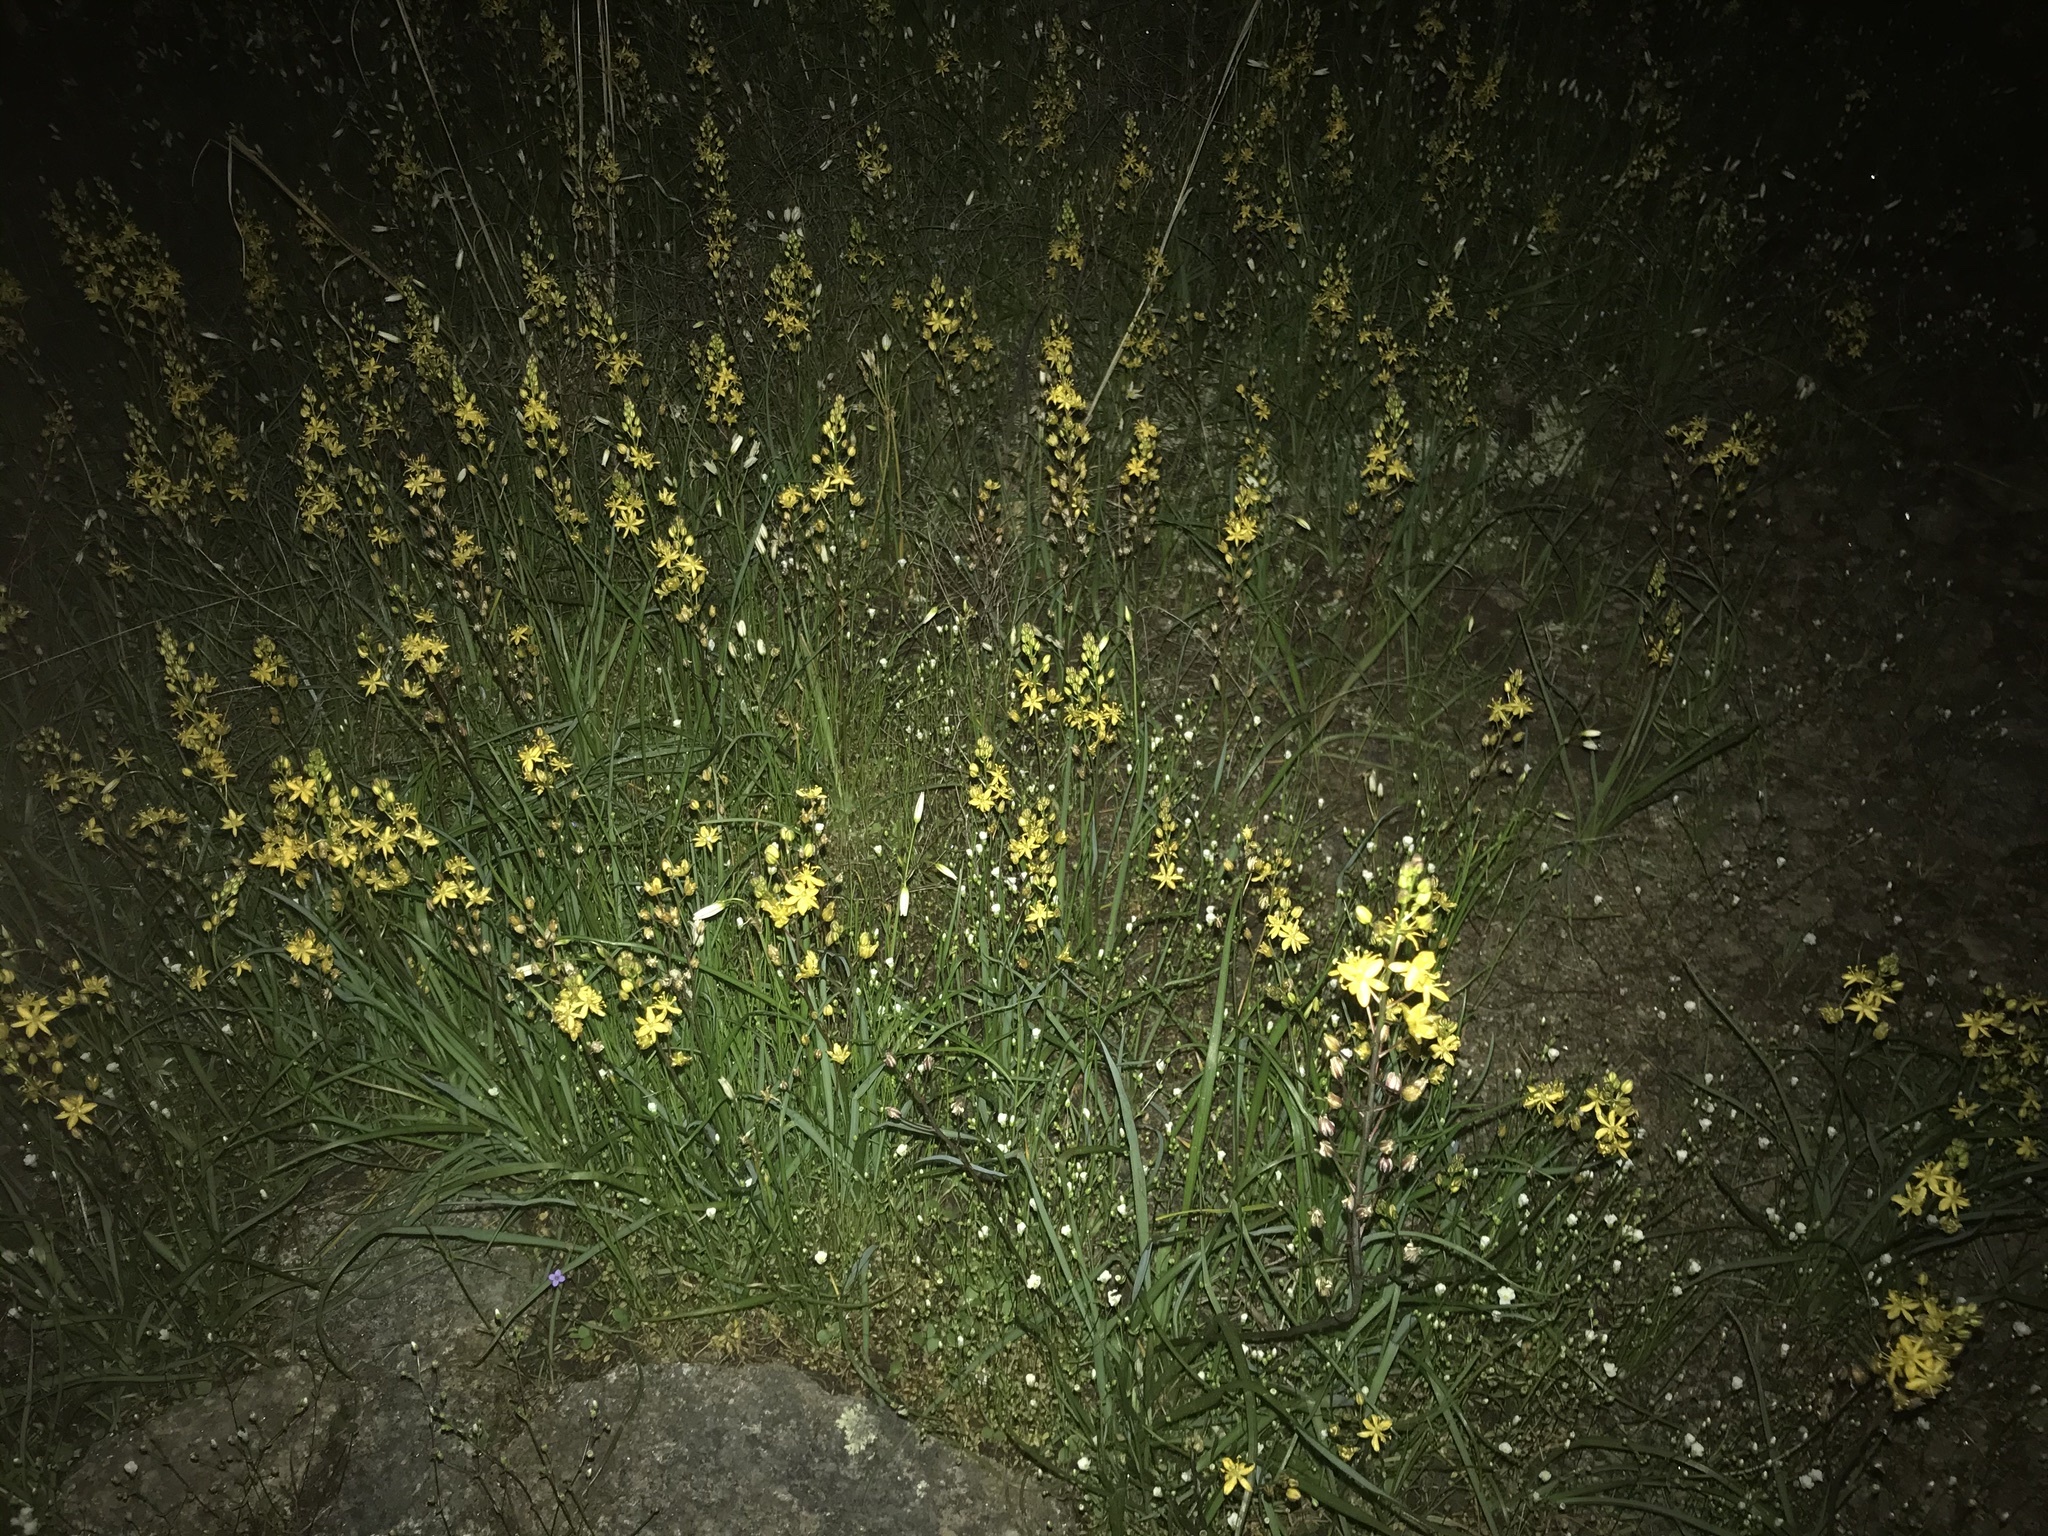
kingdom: Plantae
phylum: Tracheophyta
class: Liliopsida
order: Asparagales
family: Asparagaceae
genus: Schoenolirion
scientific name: Schoenolirion croceum
